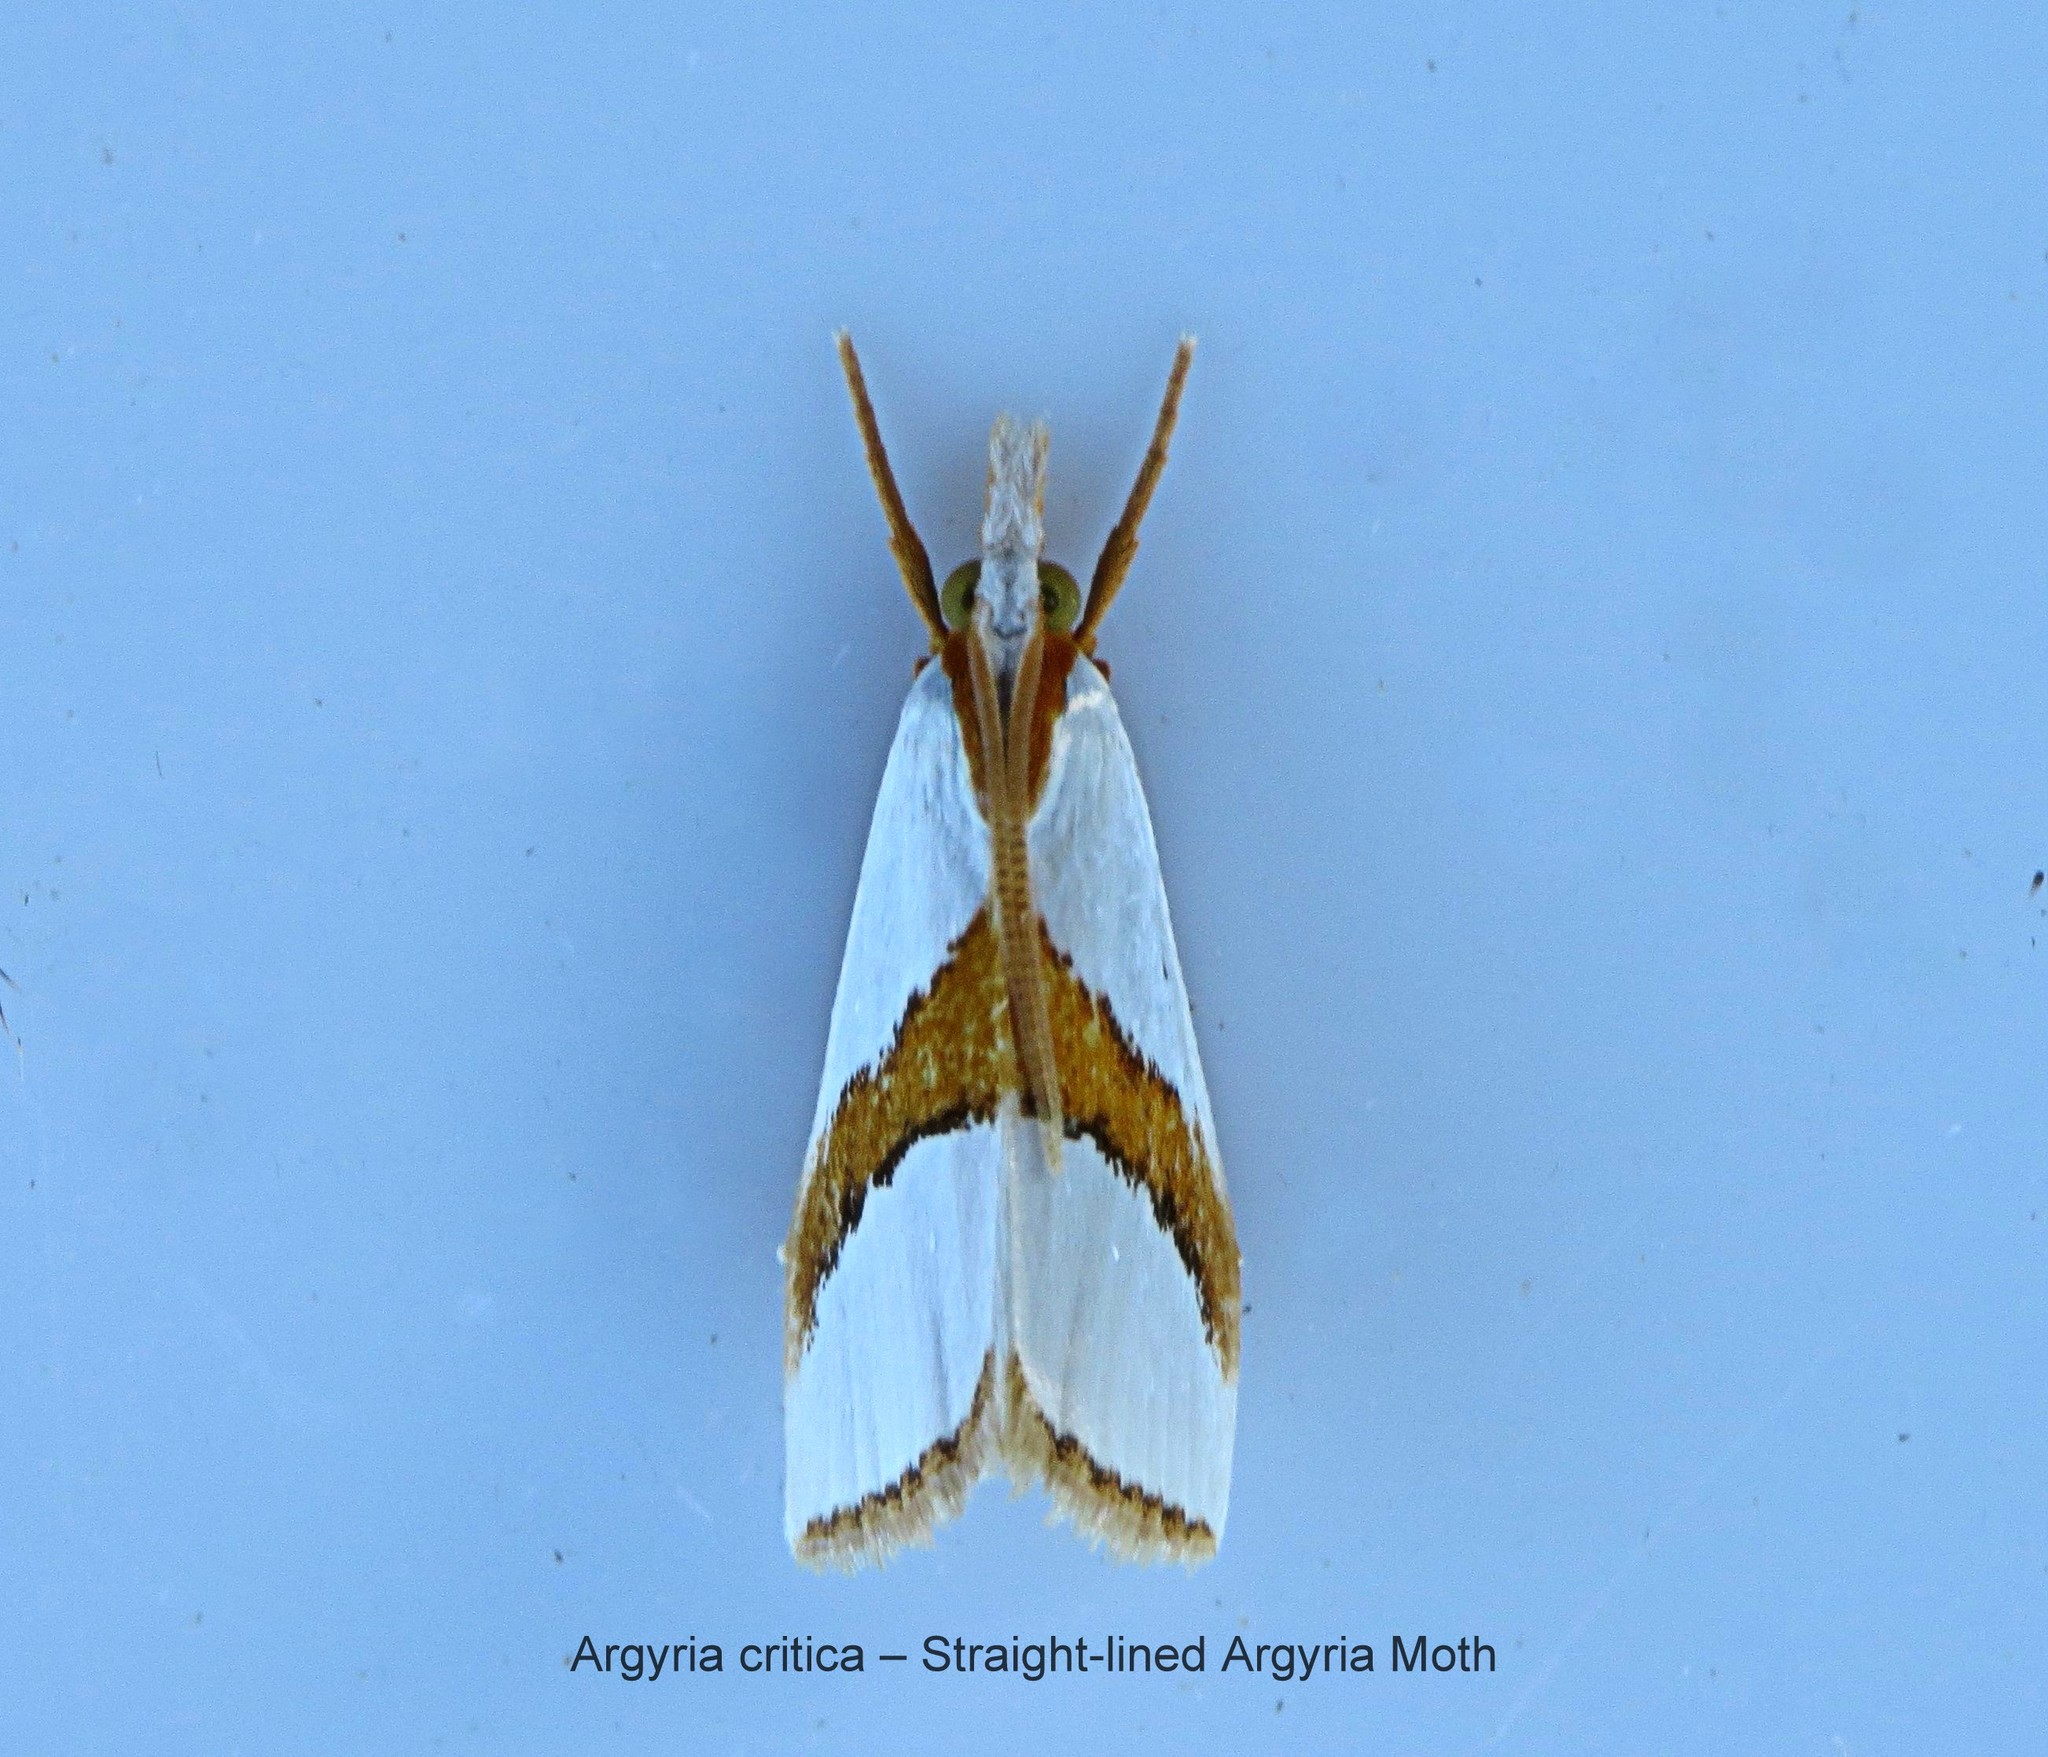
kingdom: Animalia
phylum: Arthropoda
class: Insecta
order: Lepidoptera
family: Crambidae
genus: Vaxi
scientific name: Vaxi critica
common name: Straight-lined vaxi moth
